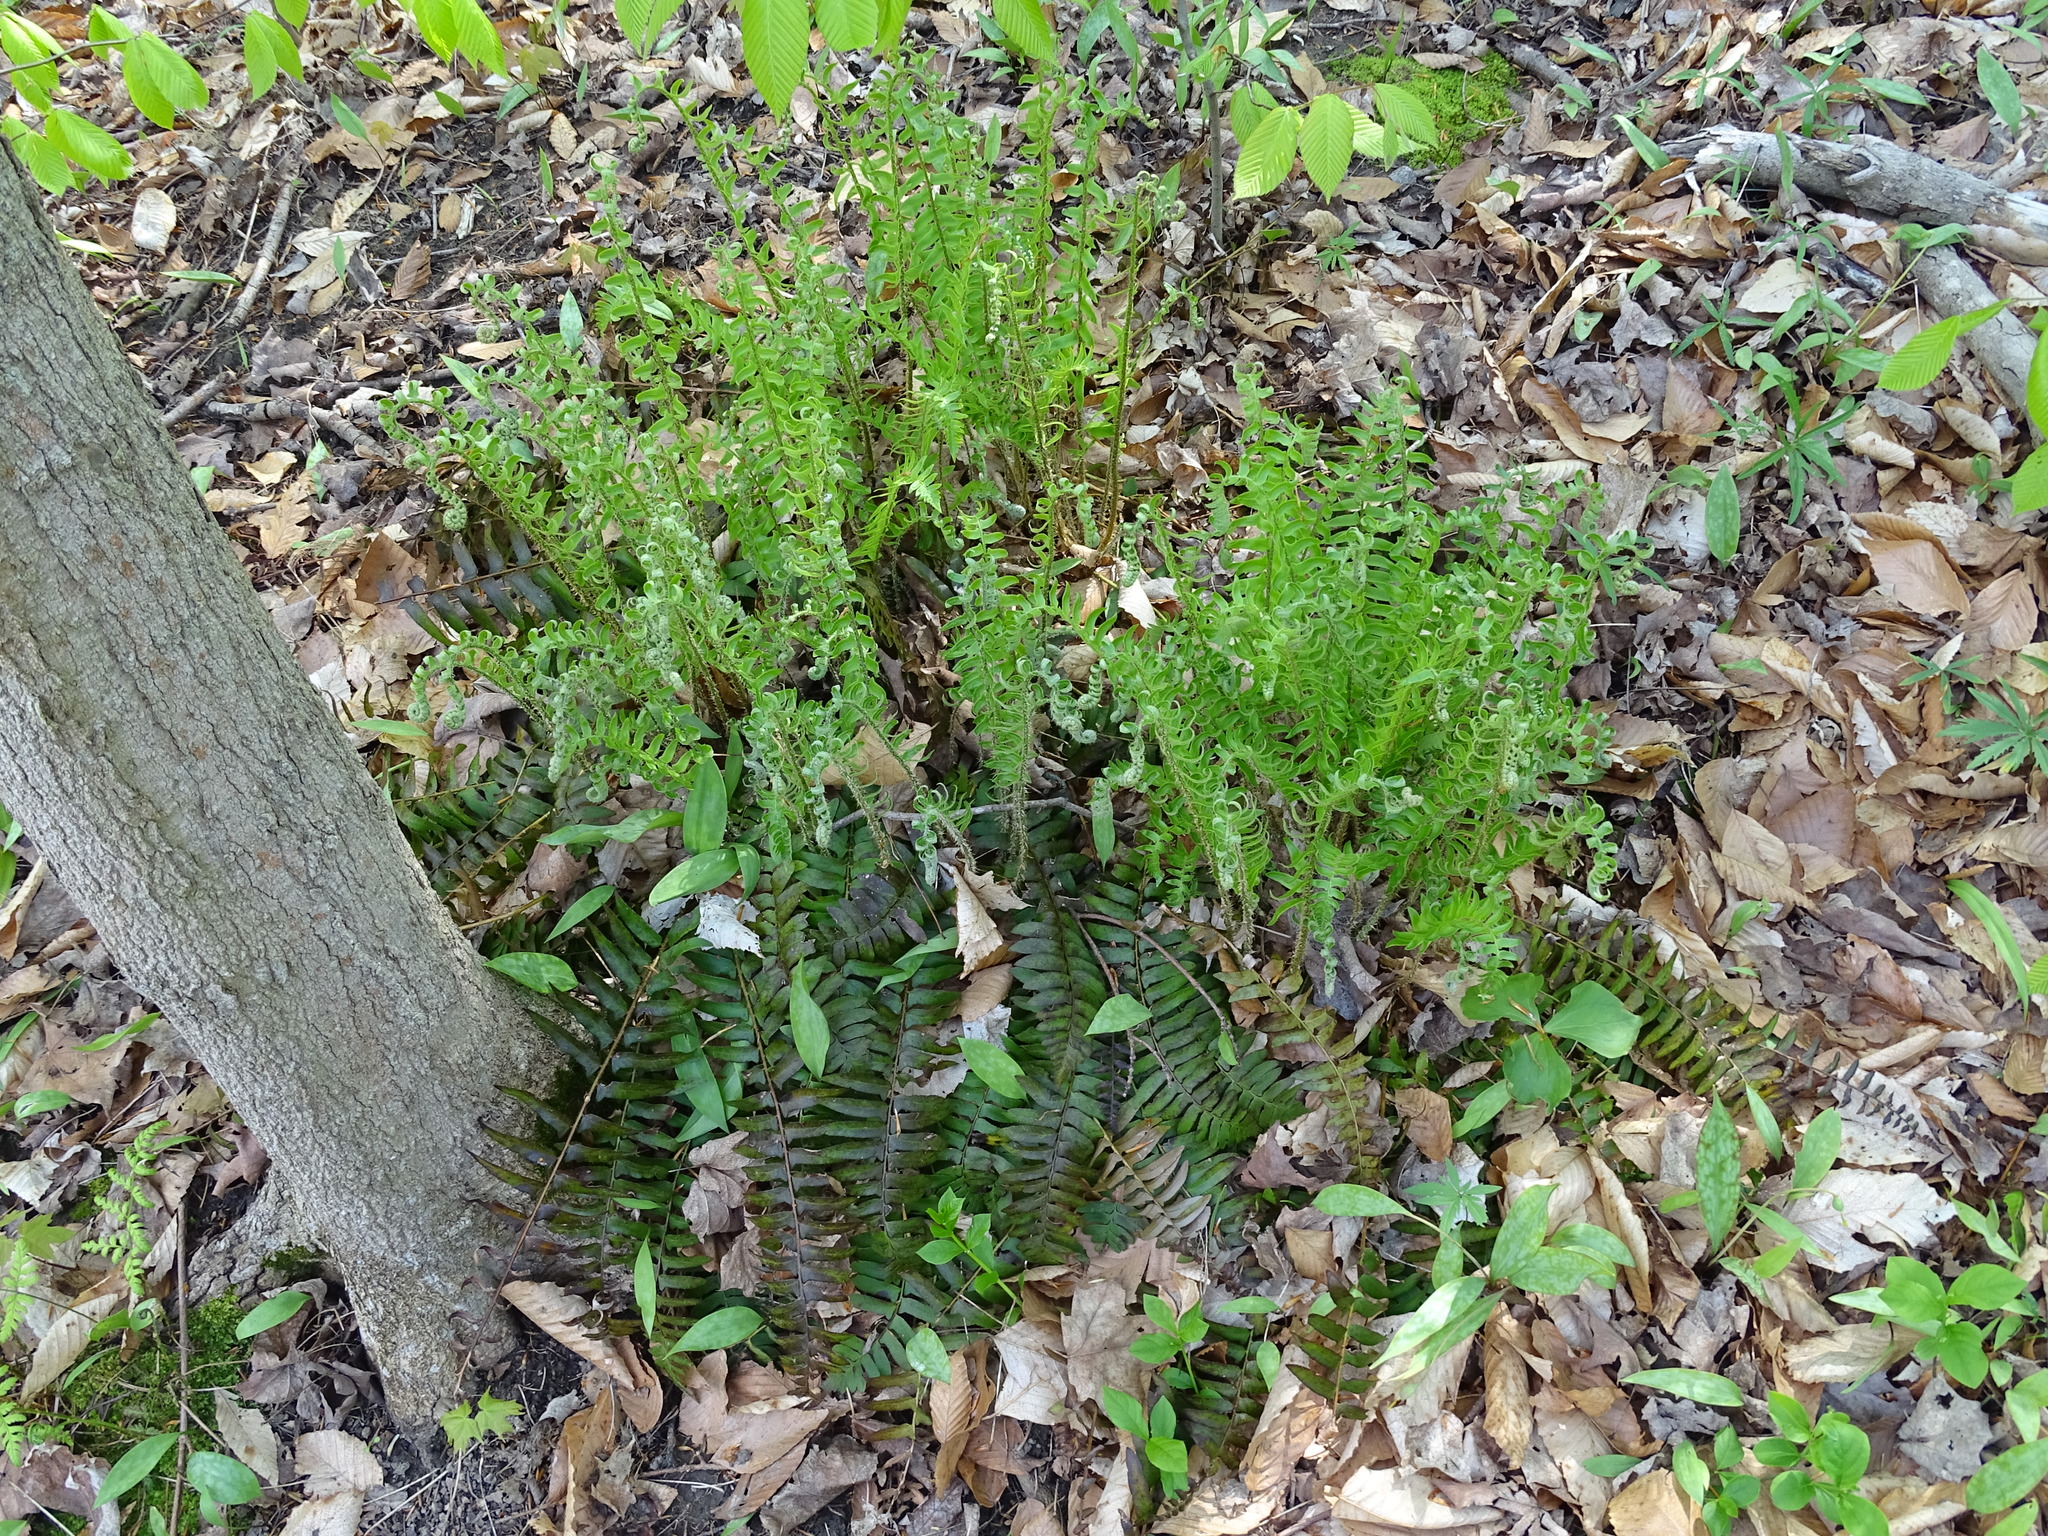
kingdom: Plantae
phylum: Tracheophyta
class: Polypodiopsida
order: Polypodiales
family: Dryopteridaceae
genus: Polystichum
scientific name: Polystichum acrostichoides
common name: Christmas fern
